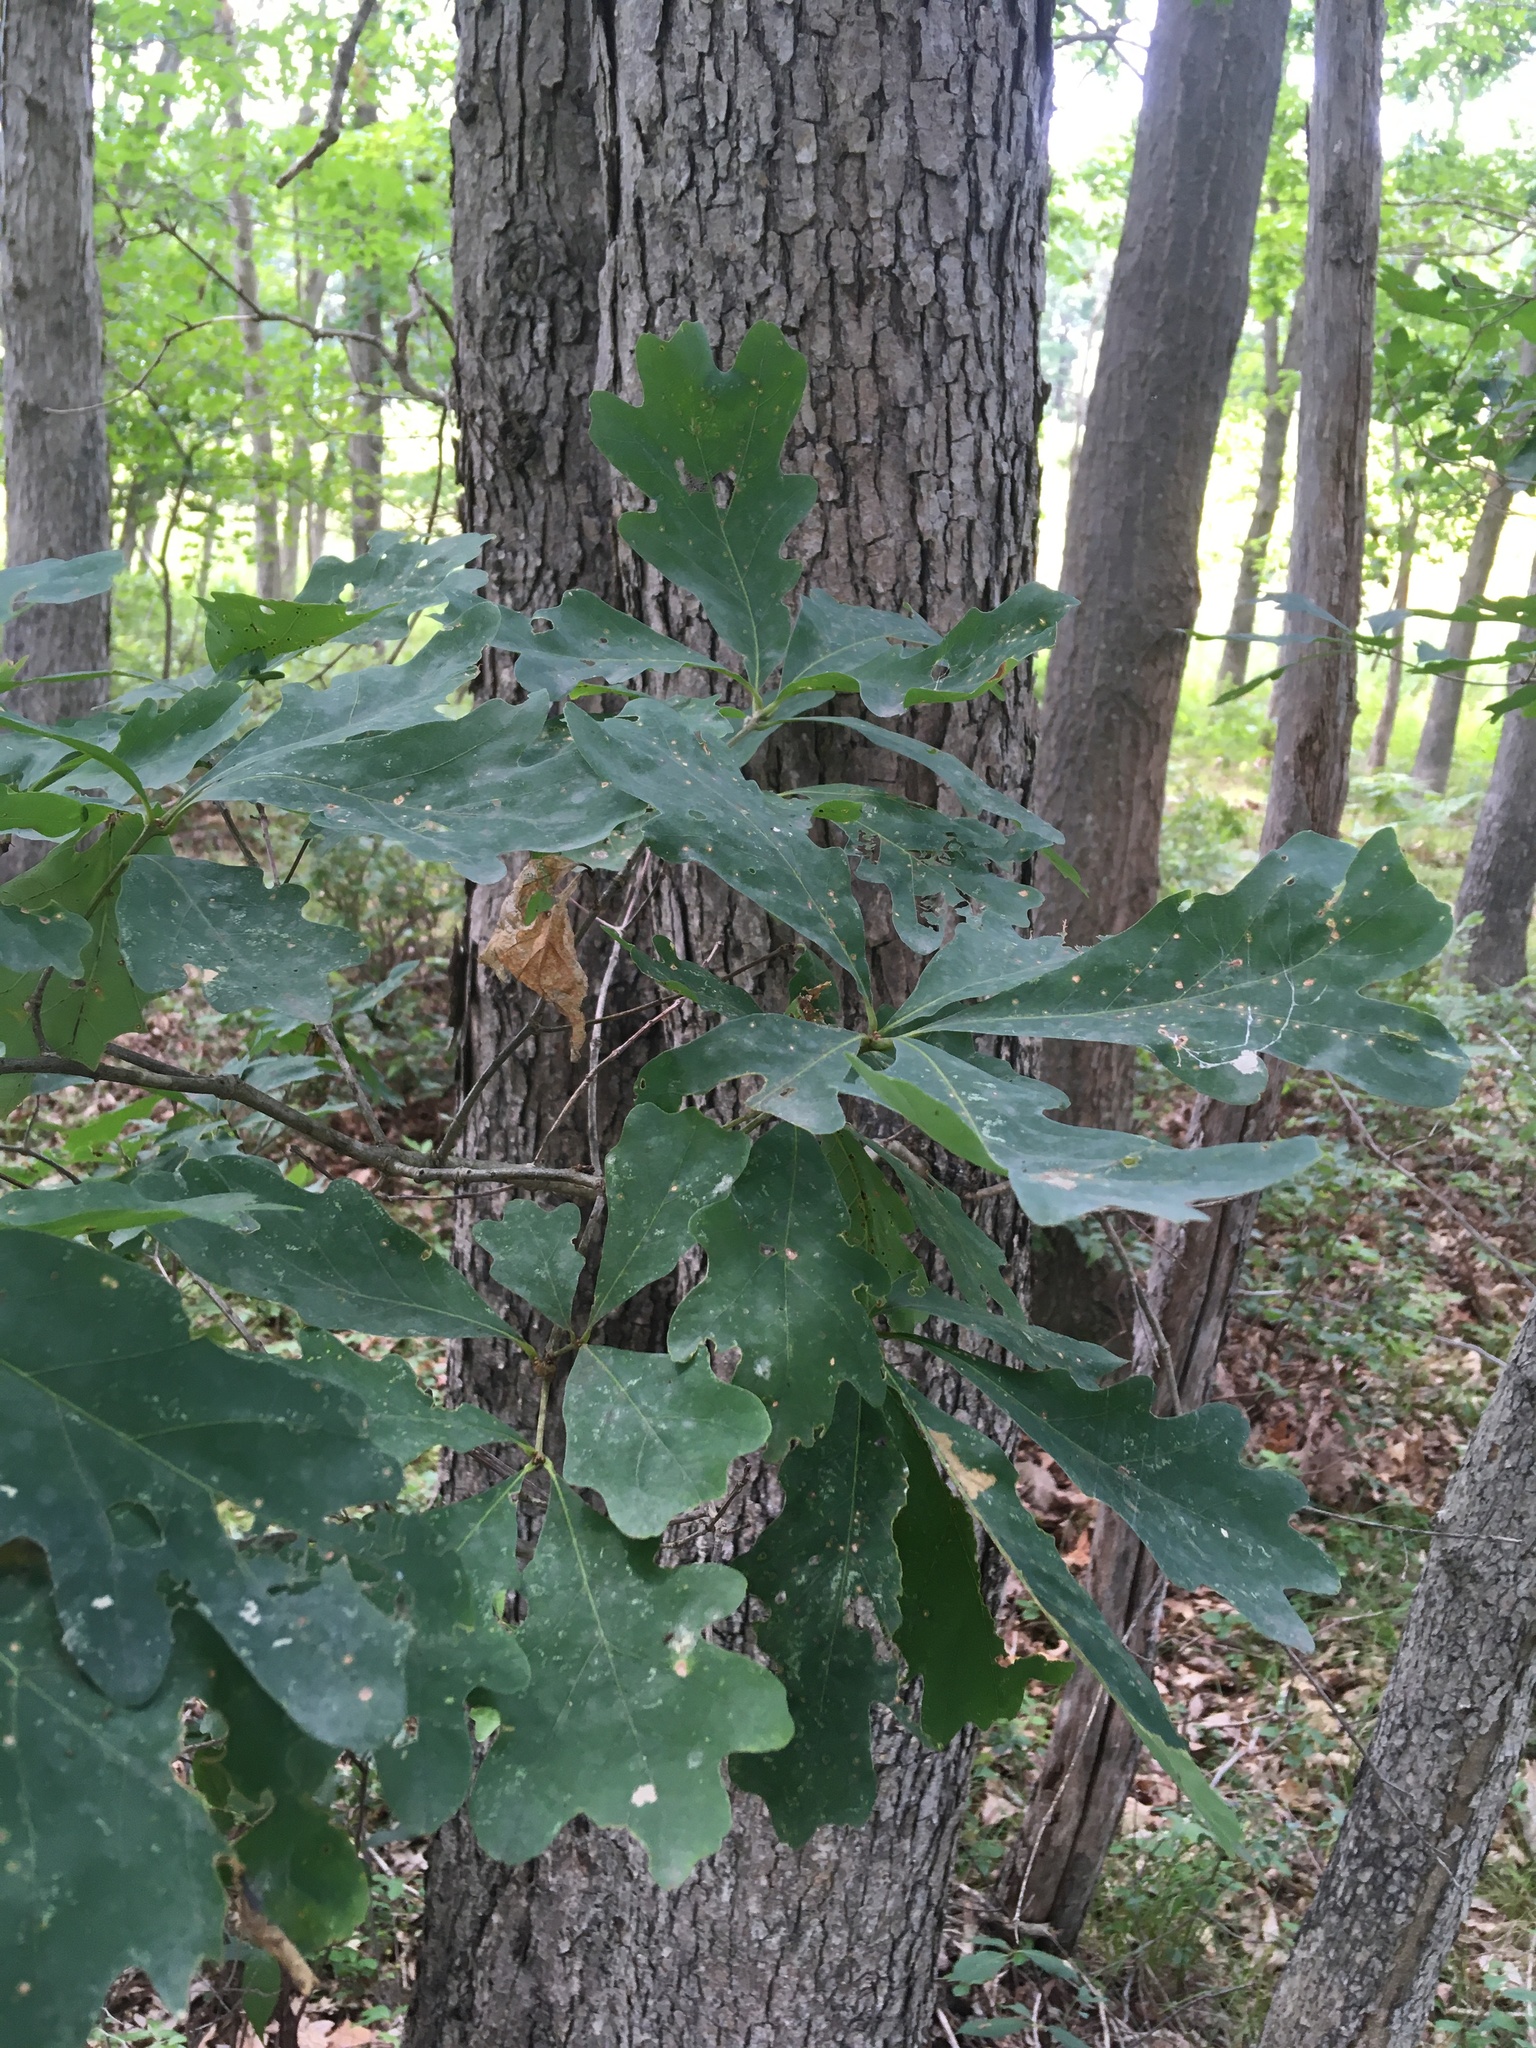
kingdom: Plantae
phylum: Tracheophyta
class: Magnoliopsida
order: Fagales
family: Fagaceae
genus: Quercus
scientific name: Quercus alba
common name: White oak
